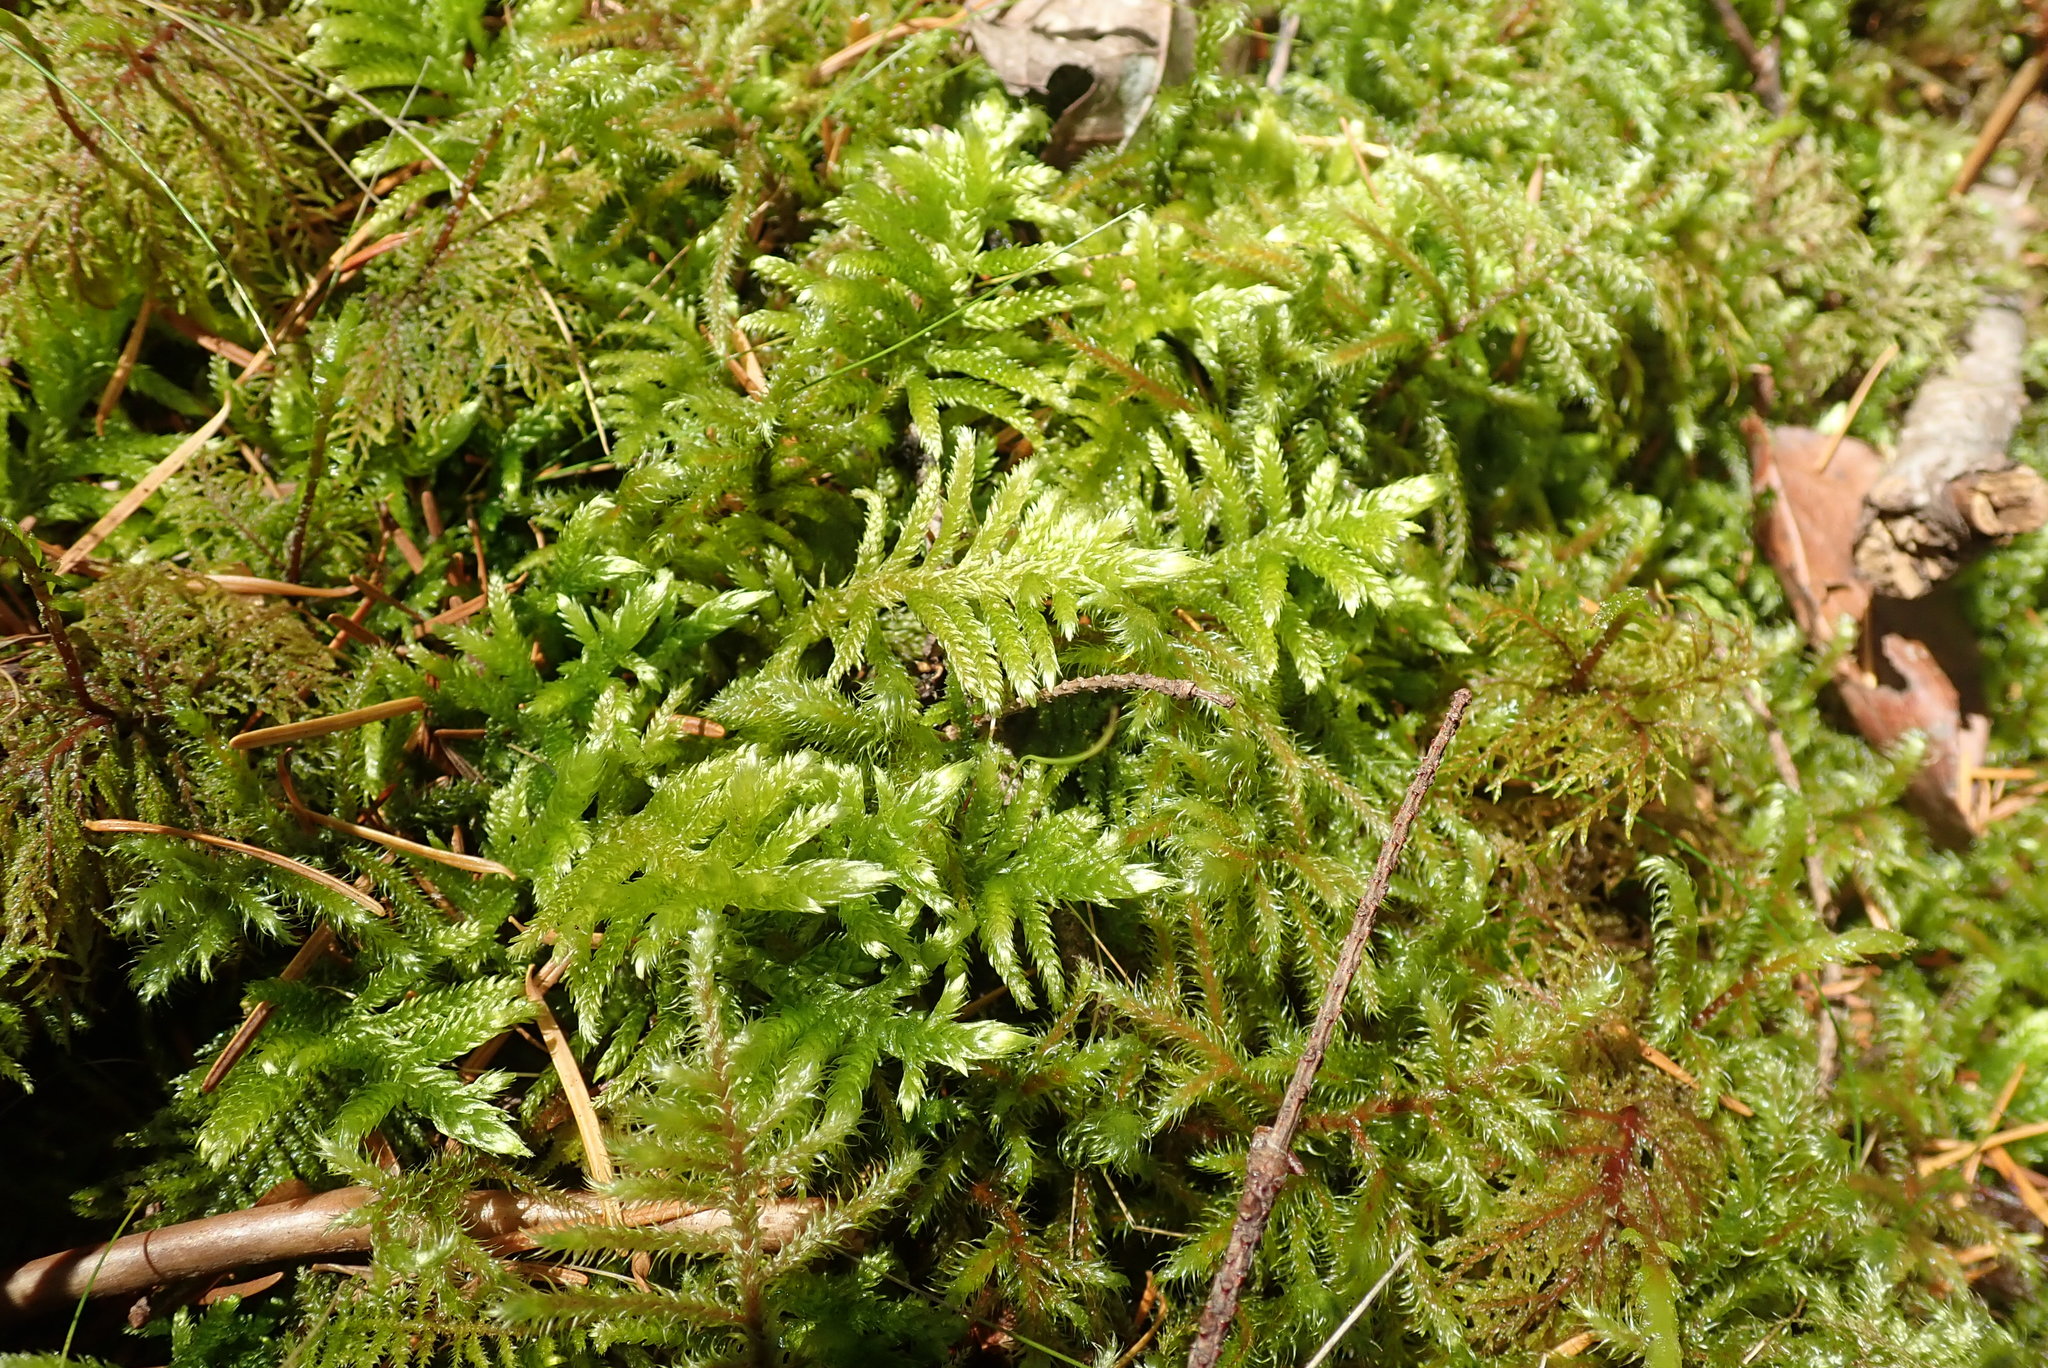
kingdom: Plantae
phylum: Bryophyta
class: Bryopsida
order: Hypnales
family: Brachytheciaceae
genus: Homalothecium
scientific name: Homalothecium megaptilum
